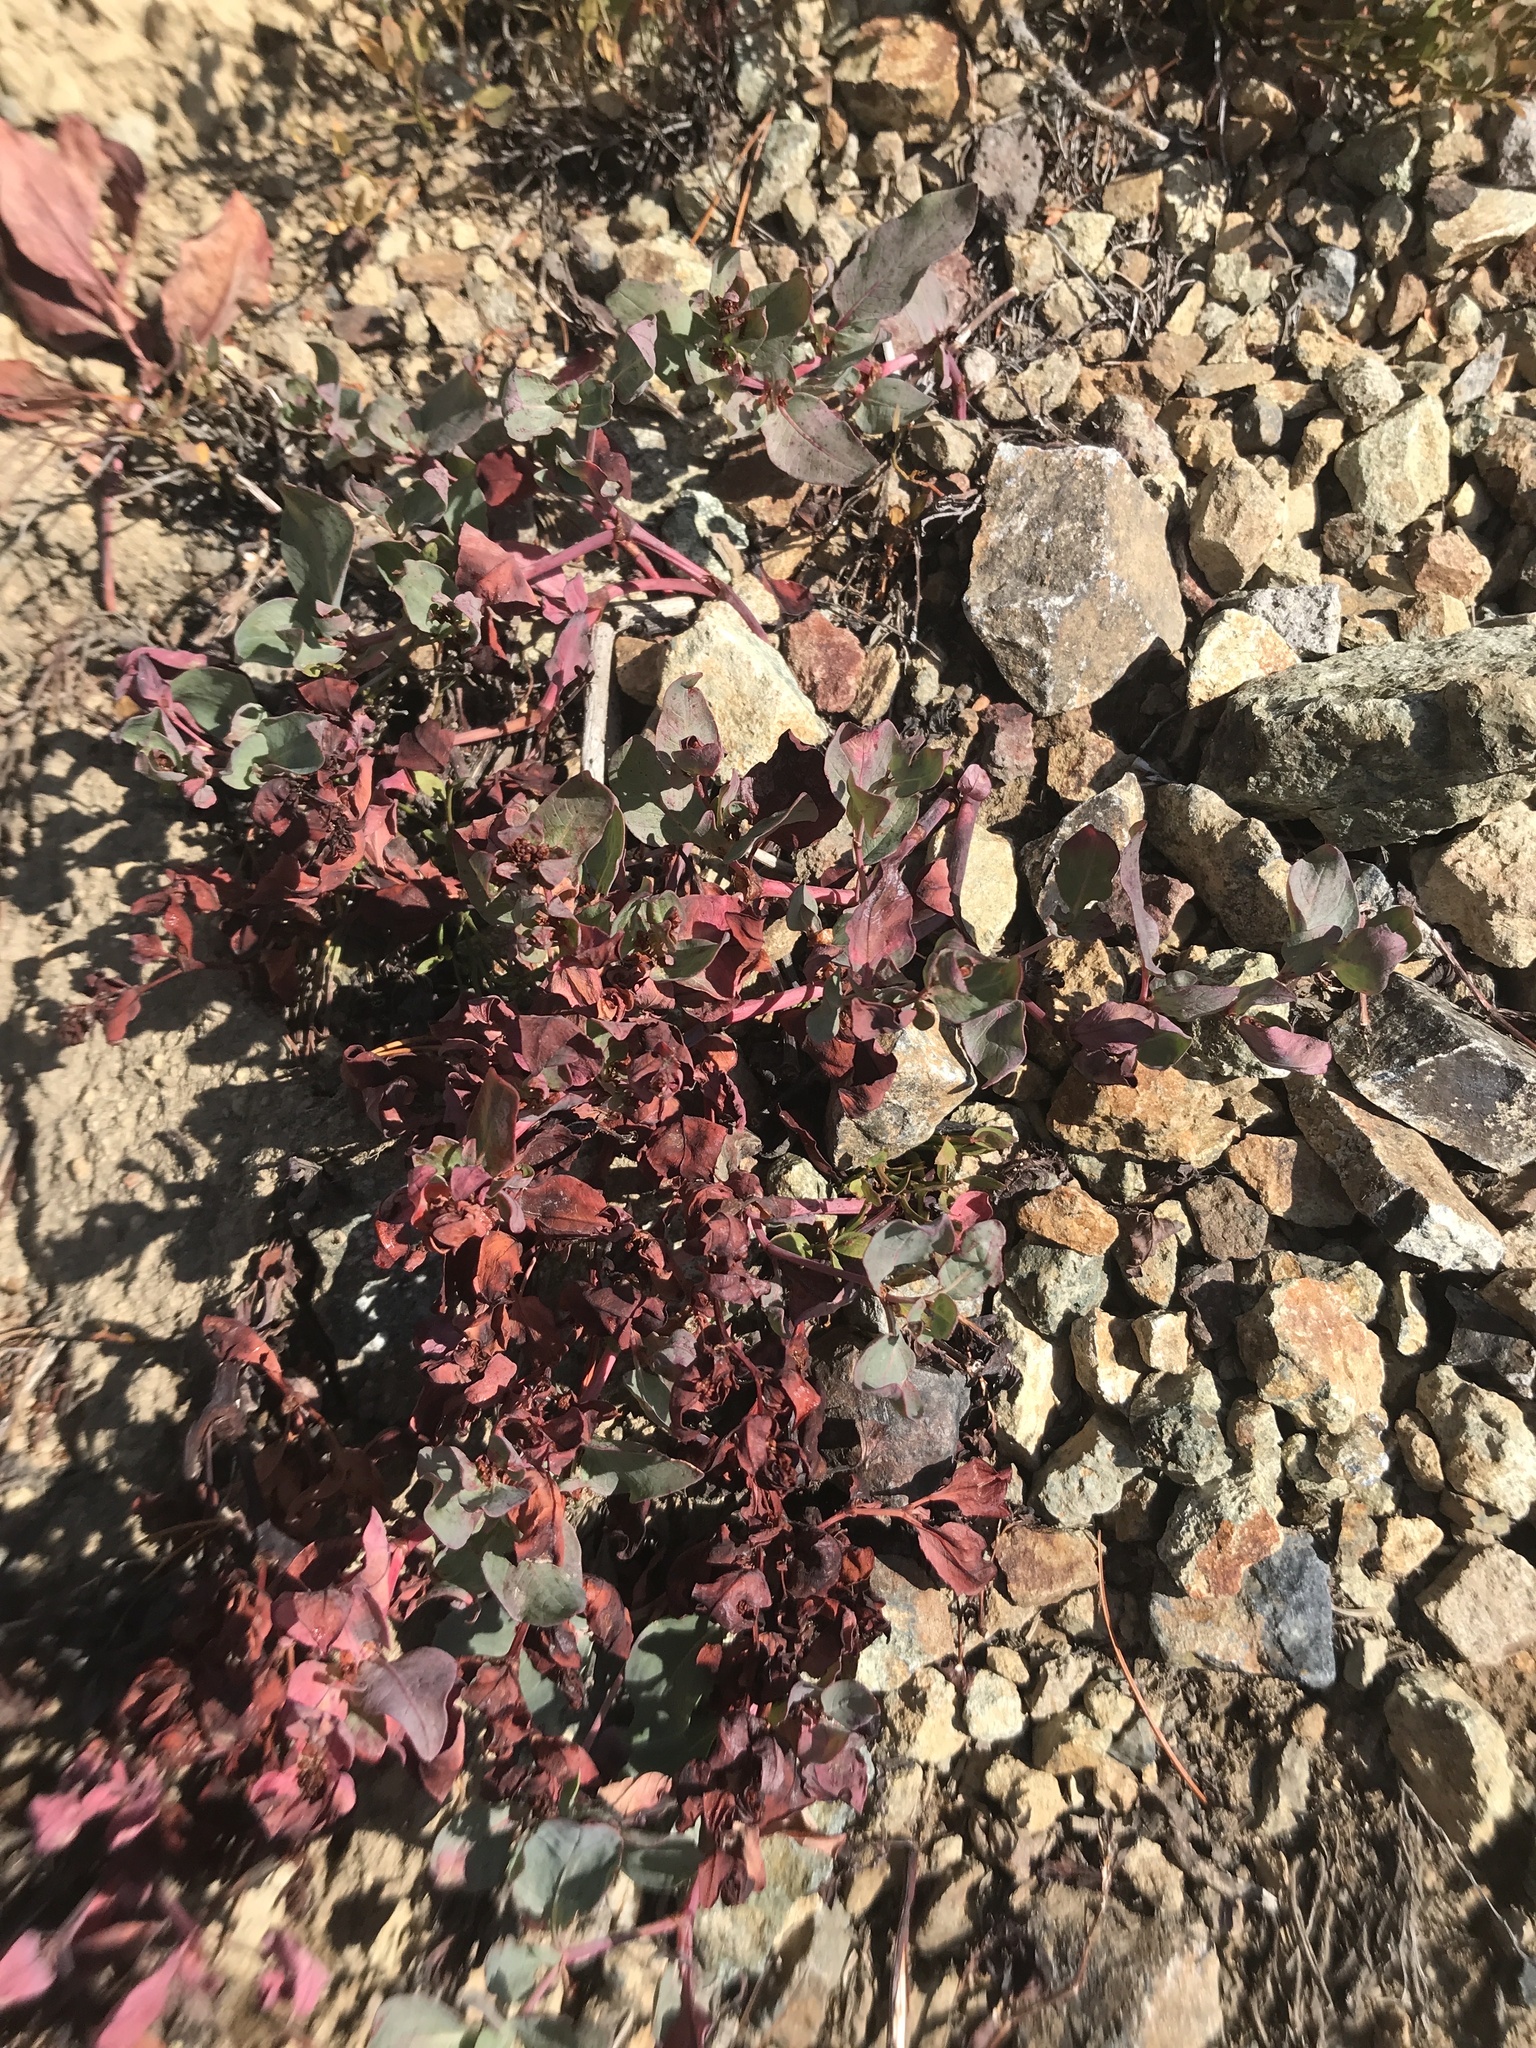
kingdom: Plantae
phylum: Tracheophyta
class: Magnoliopsida
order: Caryophyllales
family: Polygonaceae
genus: Koenigia
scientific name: Koenigia davisiae
